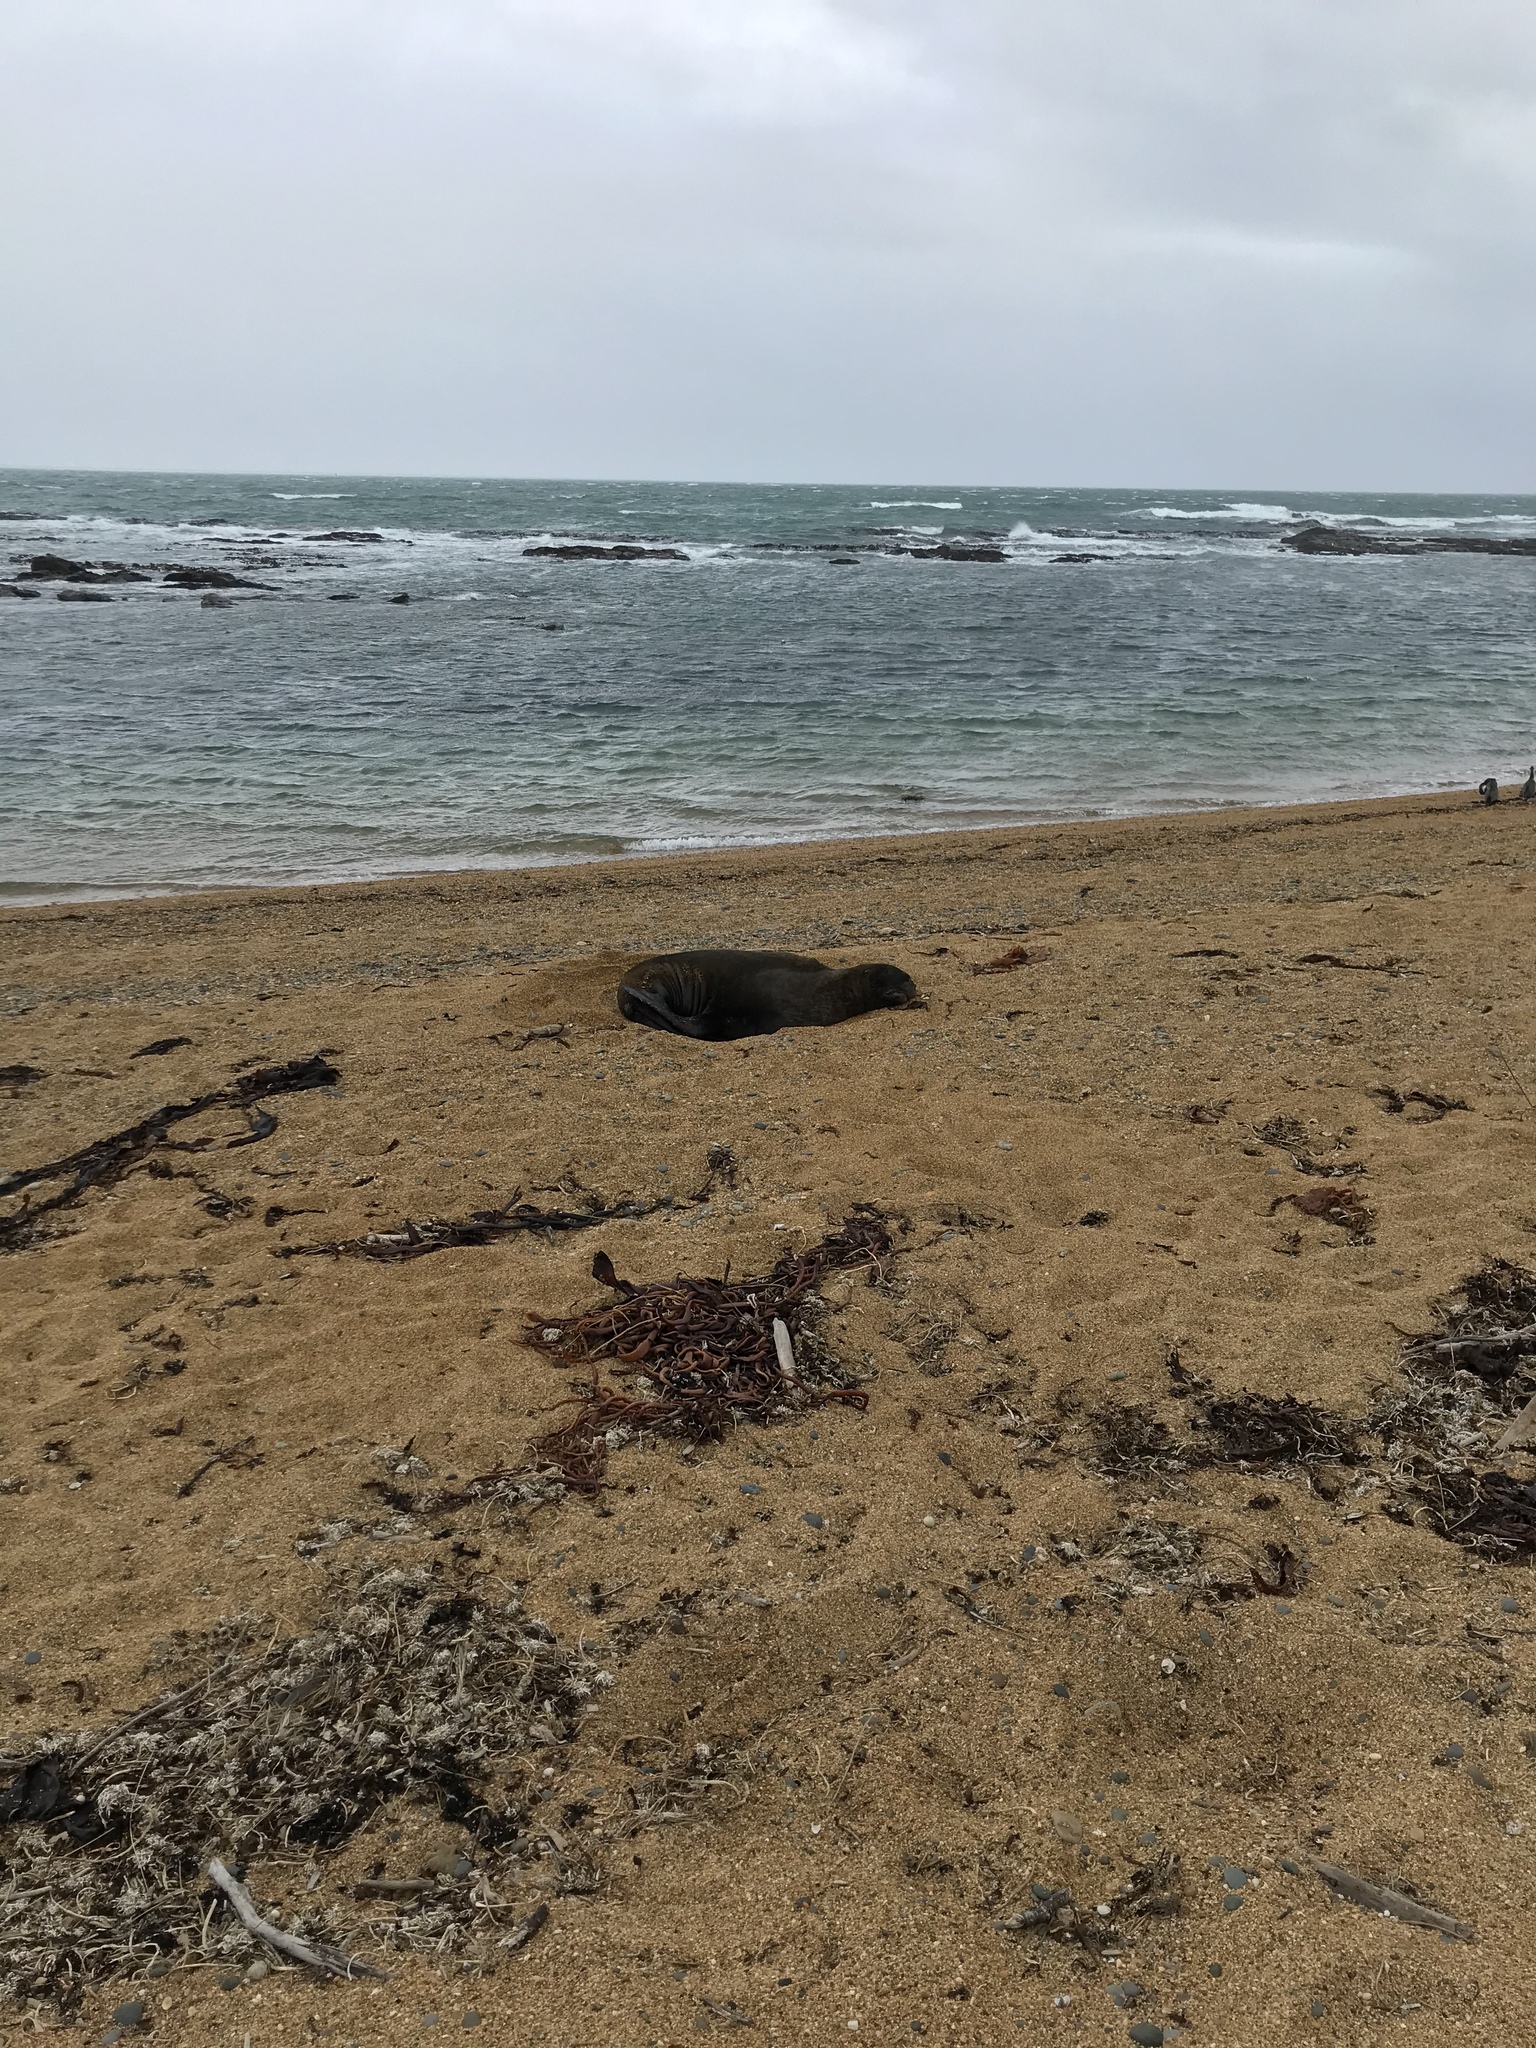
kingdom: Animalia
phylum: Chordata
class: Mammalia
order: Carnivora
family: Otariidae
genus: Phocarctos
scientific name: Phocarctos hookeri
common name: New zealand sea lion
